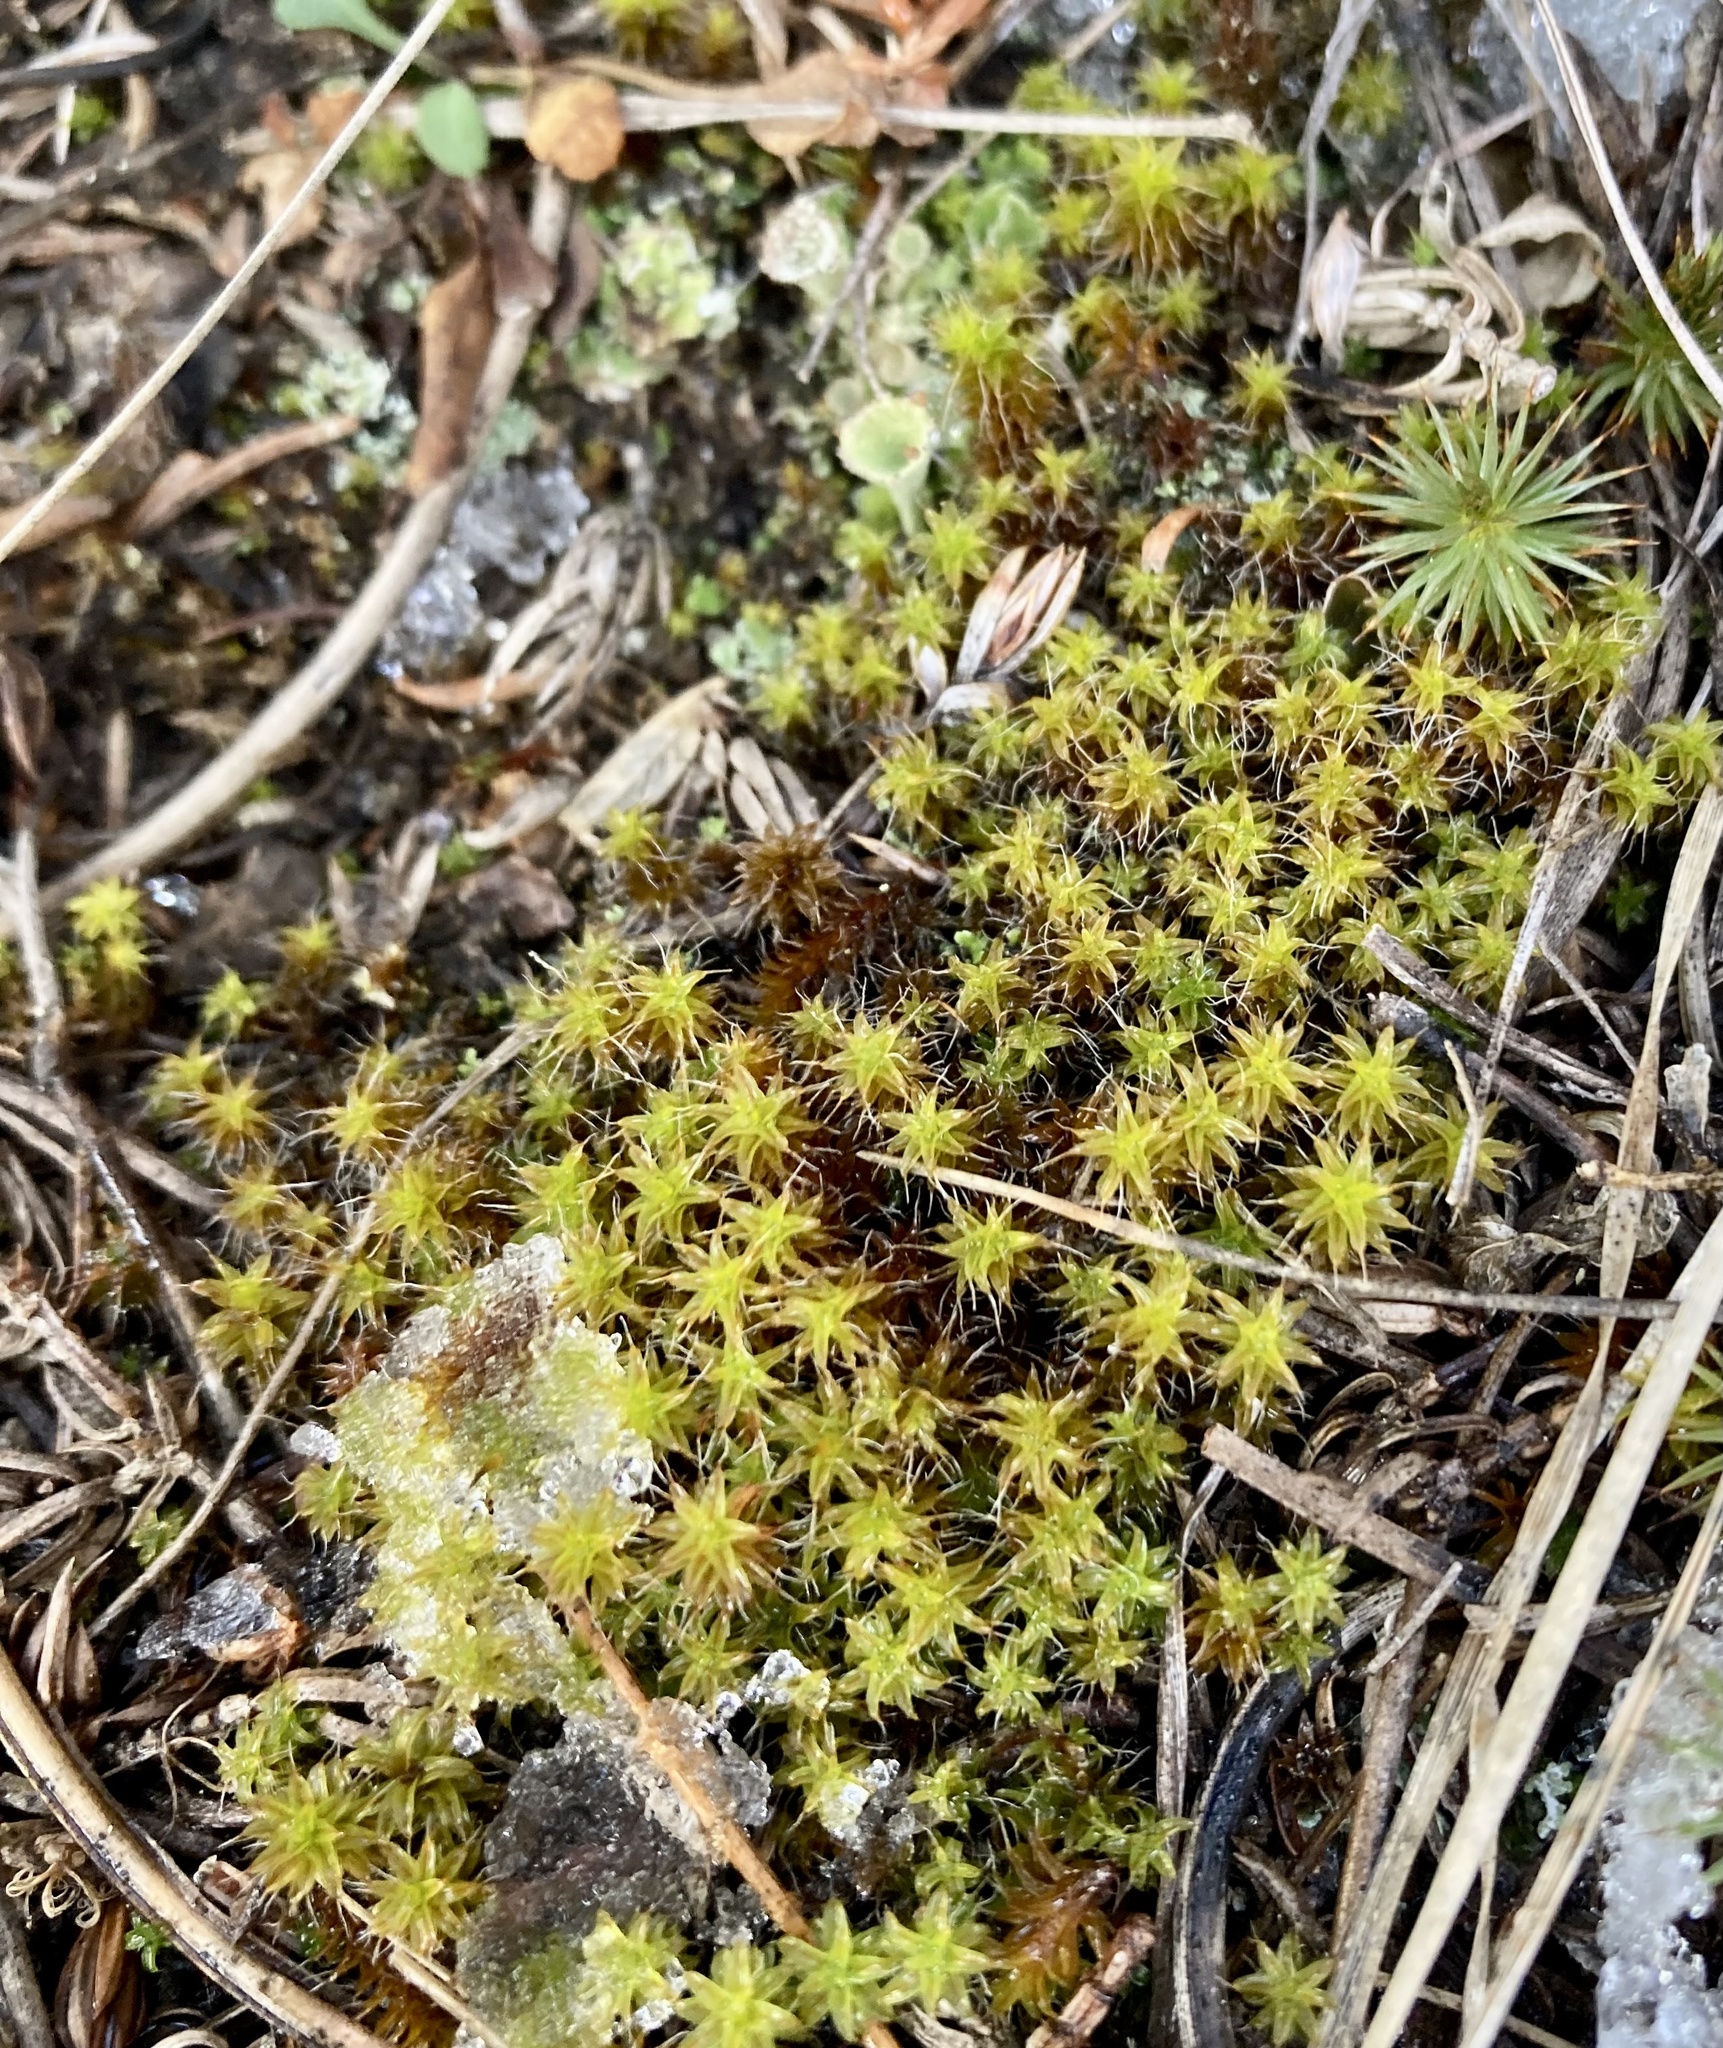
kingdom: Plantae
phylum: Bryophyta
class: Bryopsida
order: Pottiales
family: Pottiaceae
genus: Syntrichia
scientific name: Syntrichia ruralis
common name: Sidewalk screw moss
